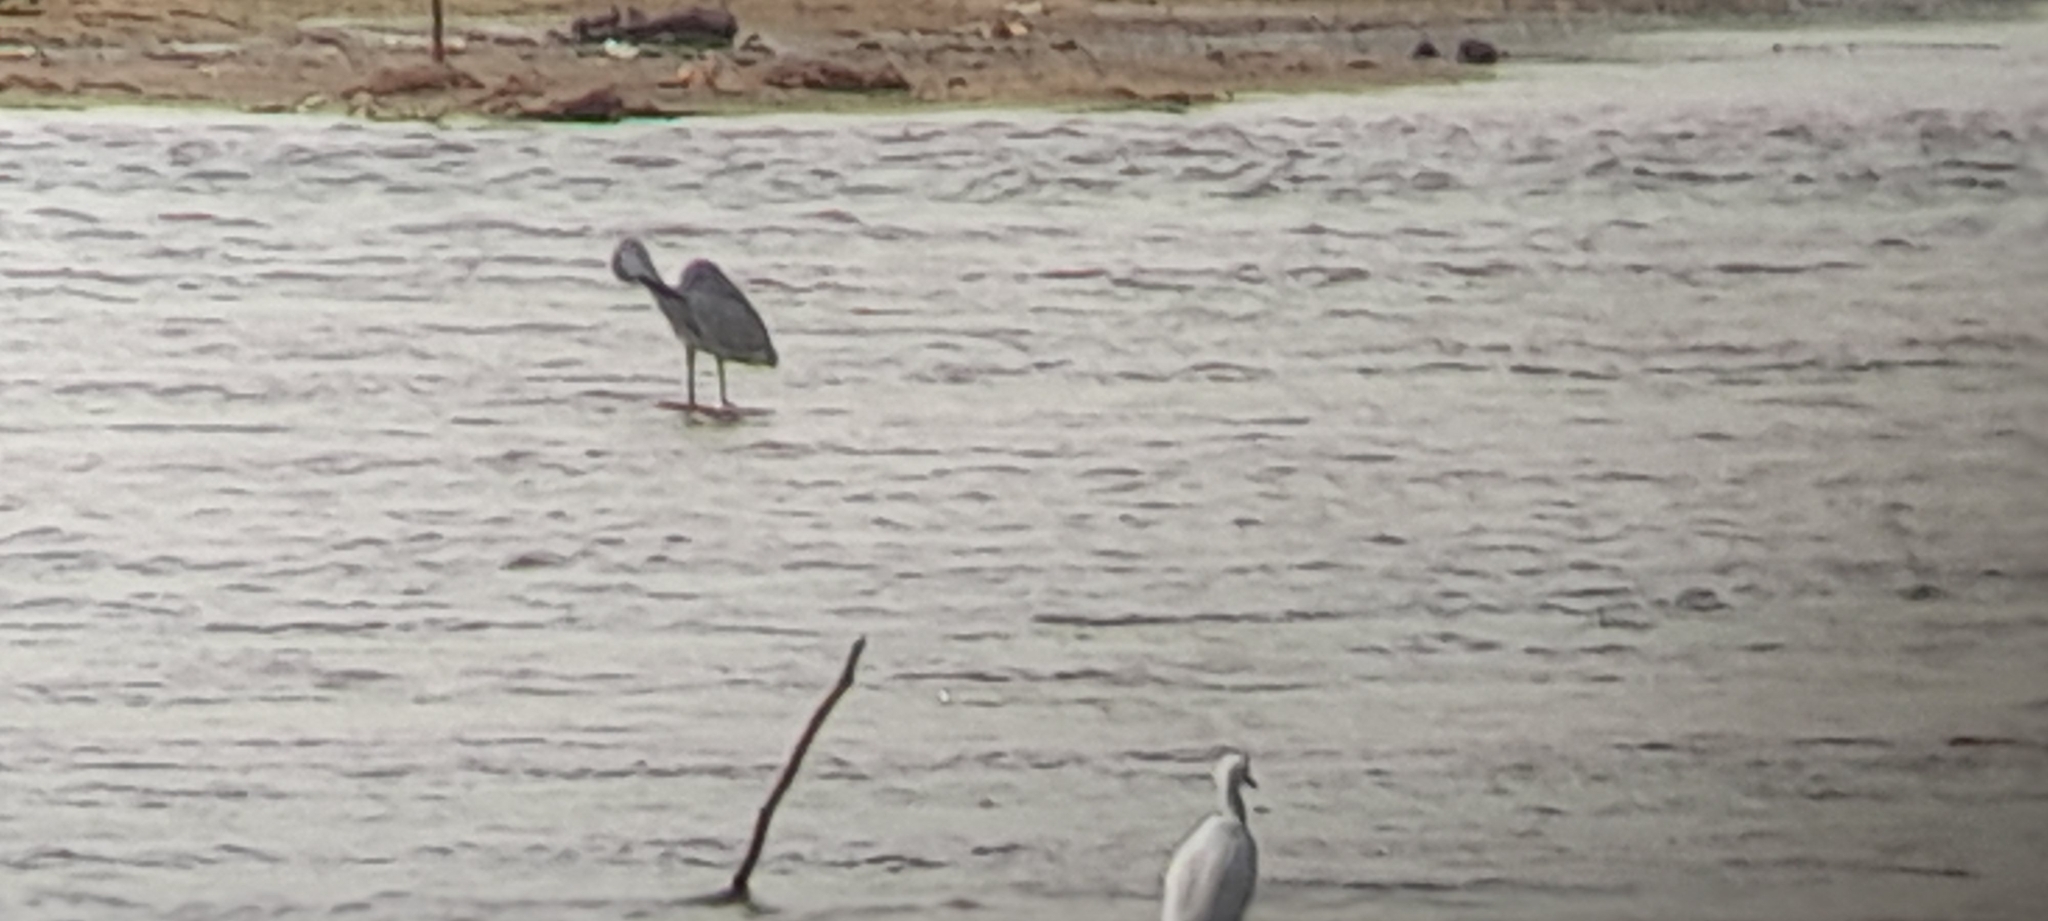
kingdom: Animalia
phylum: Chordata
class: Aves
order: Pelecaniformes
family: Ardeidae
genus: Egretta
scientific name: Egretta gularis
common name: Western reef-heron
